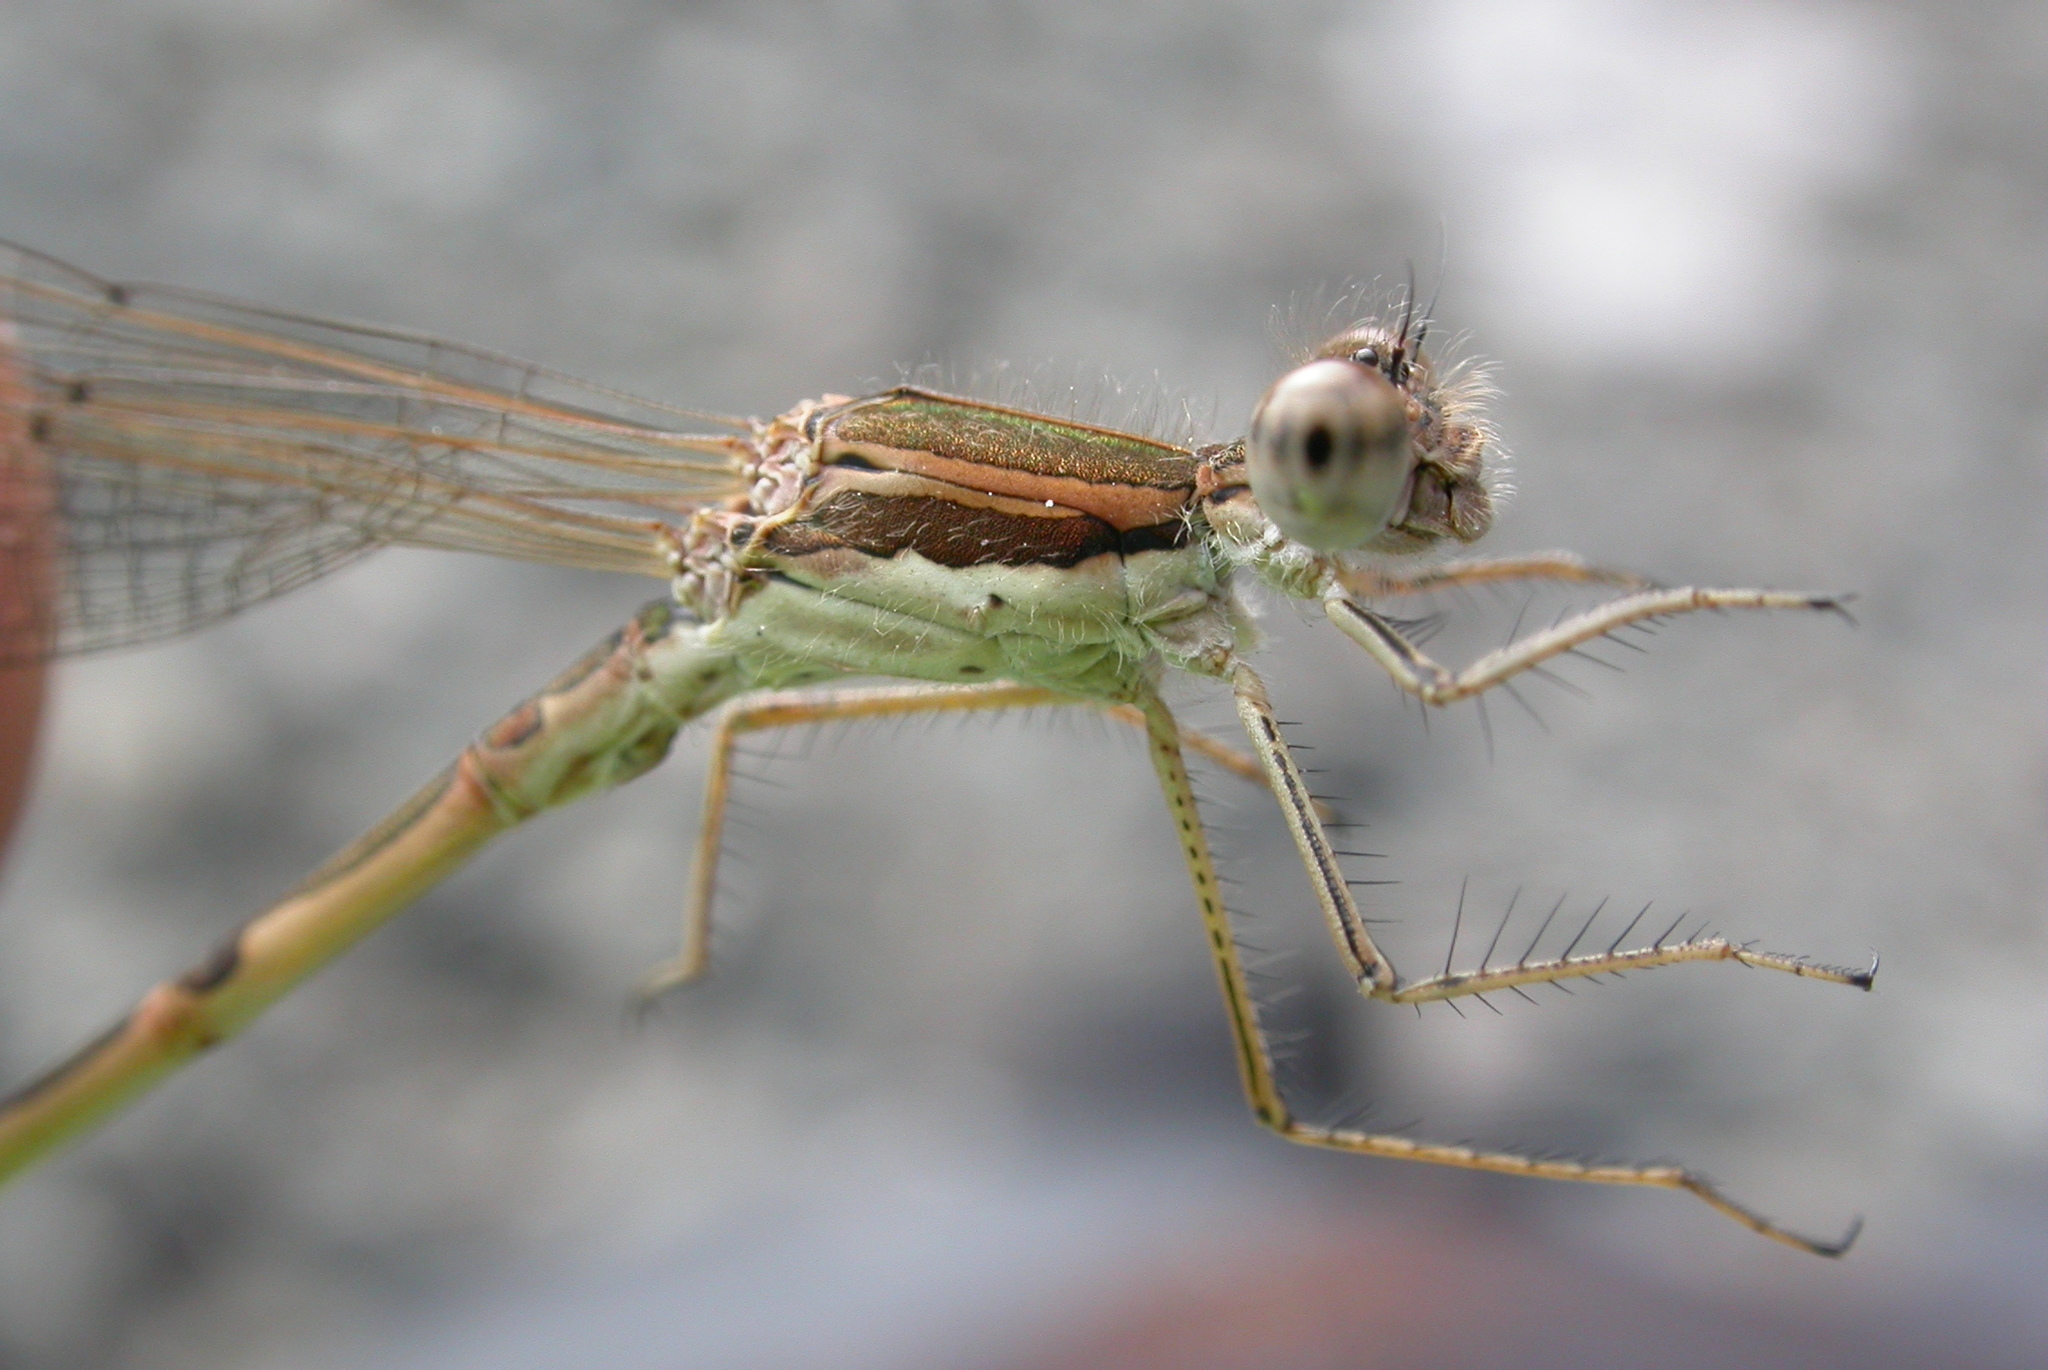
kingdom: Animalia
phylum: Arthropoda
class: Insecta
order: Odonata
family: Lestidae
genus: Sympecma
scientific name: Sympecma fusca
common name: Common winter damsel
